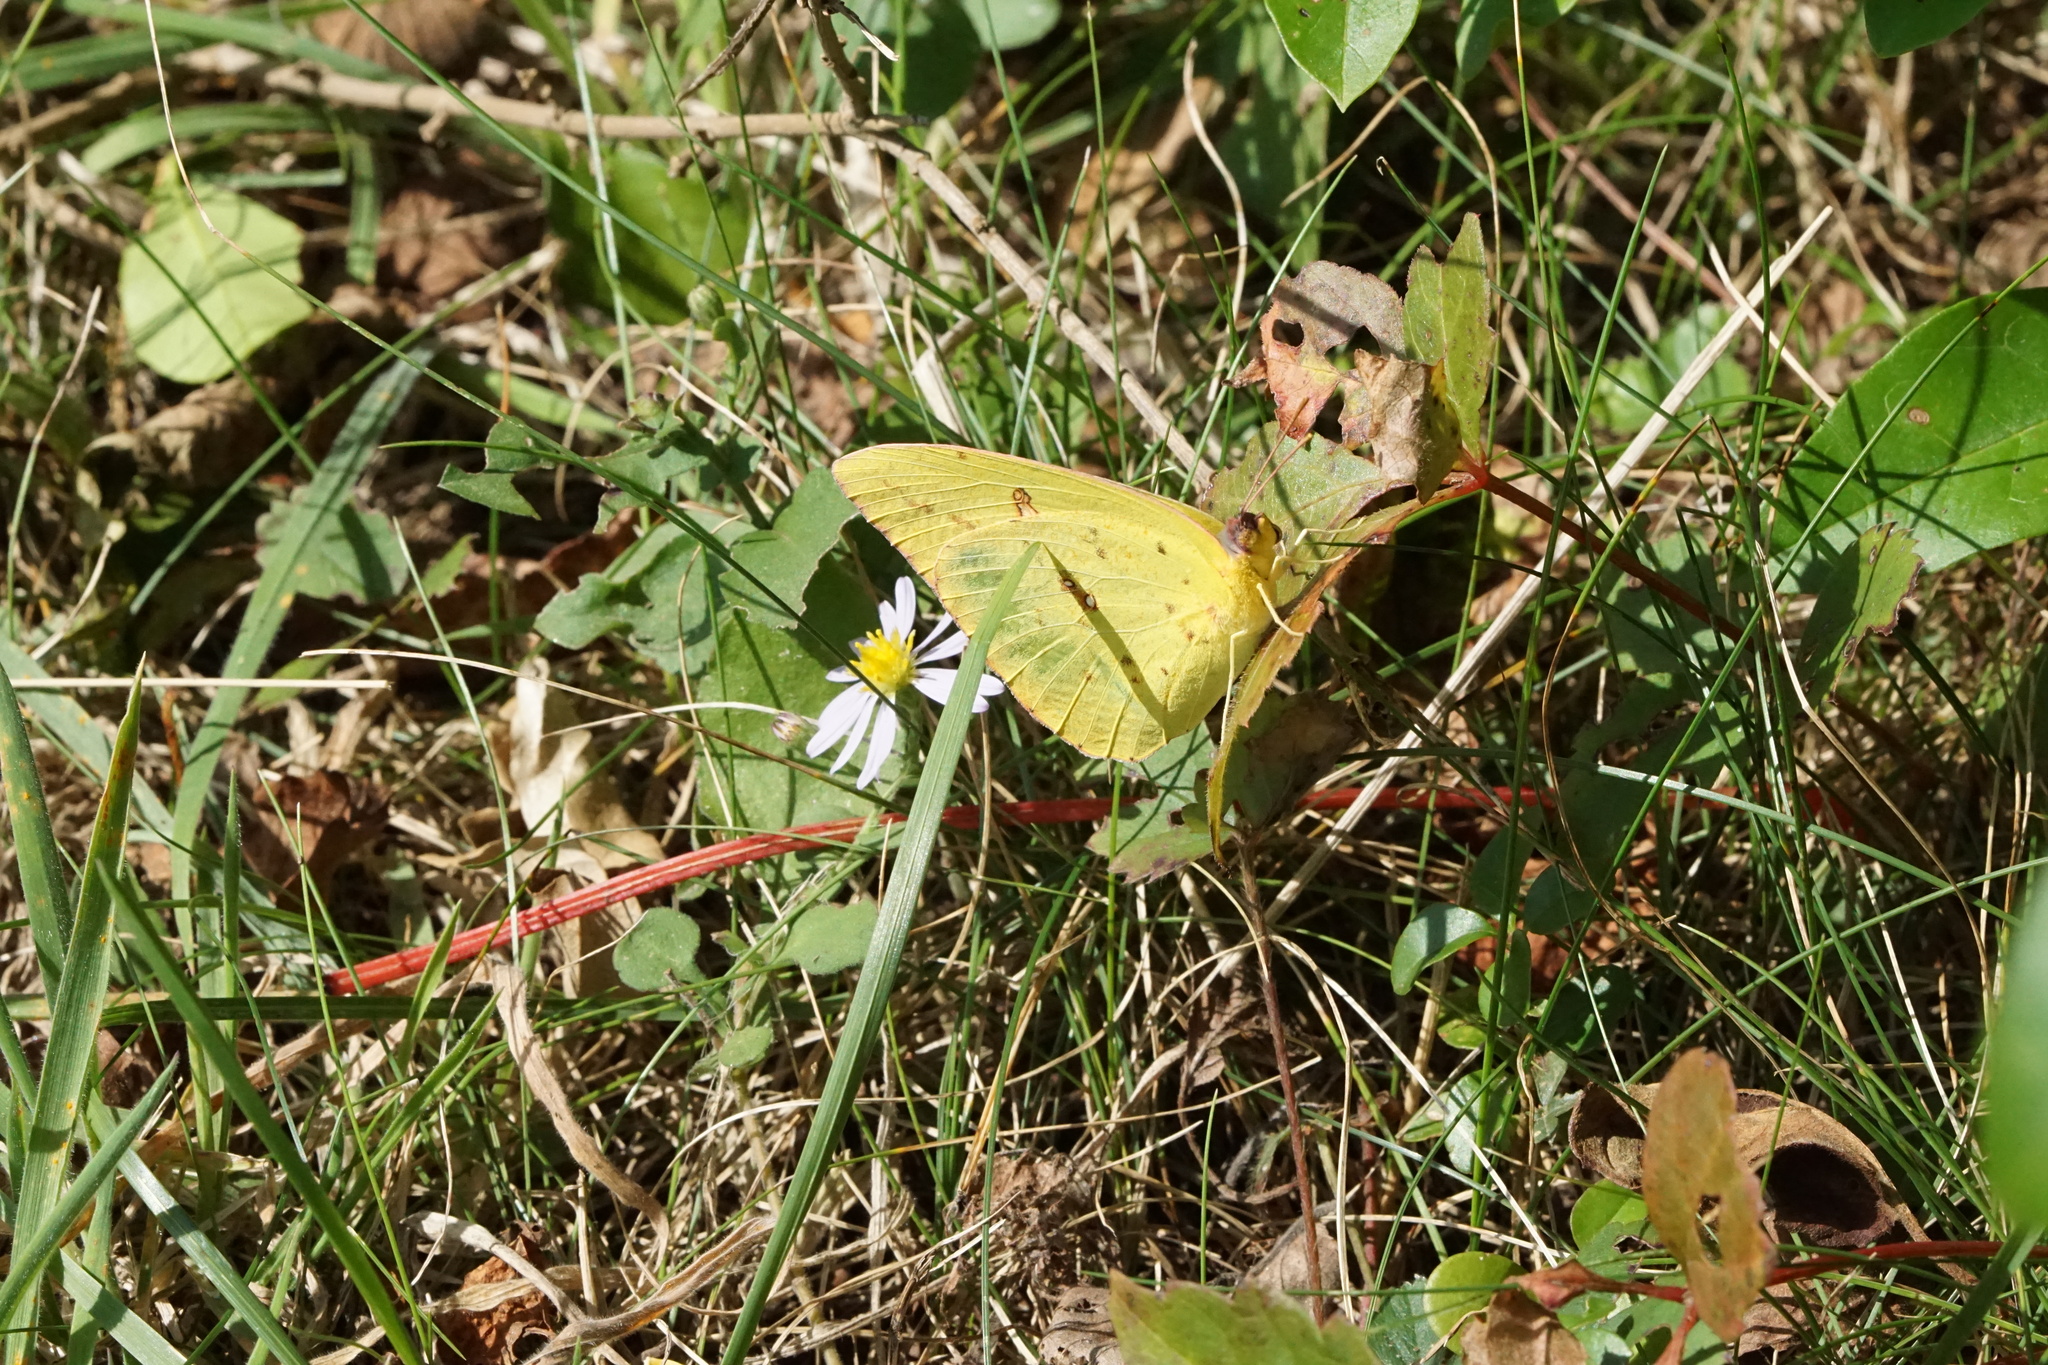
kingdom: Animalia
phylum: Arthropoda
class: Insecta
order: Lepidoptera
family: Pieridae
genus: Phoebis
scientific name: Phoebis sennae
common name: Cloudless sulphur
